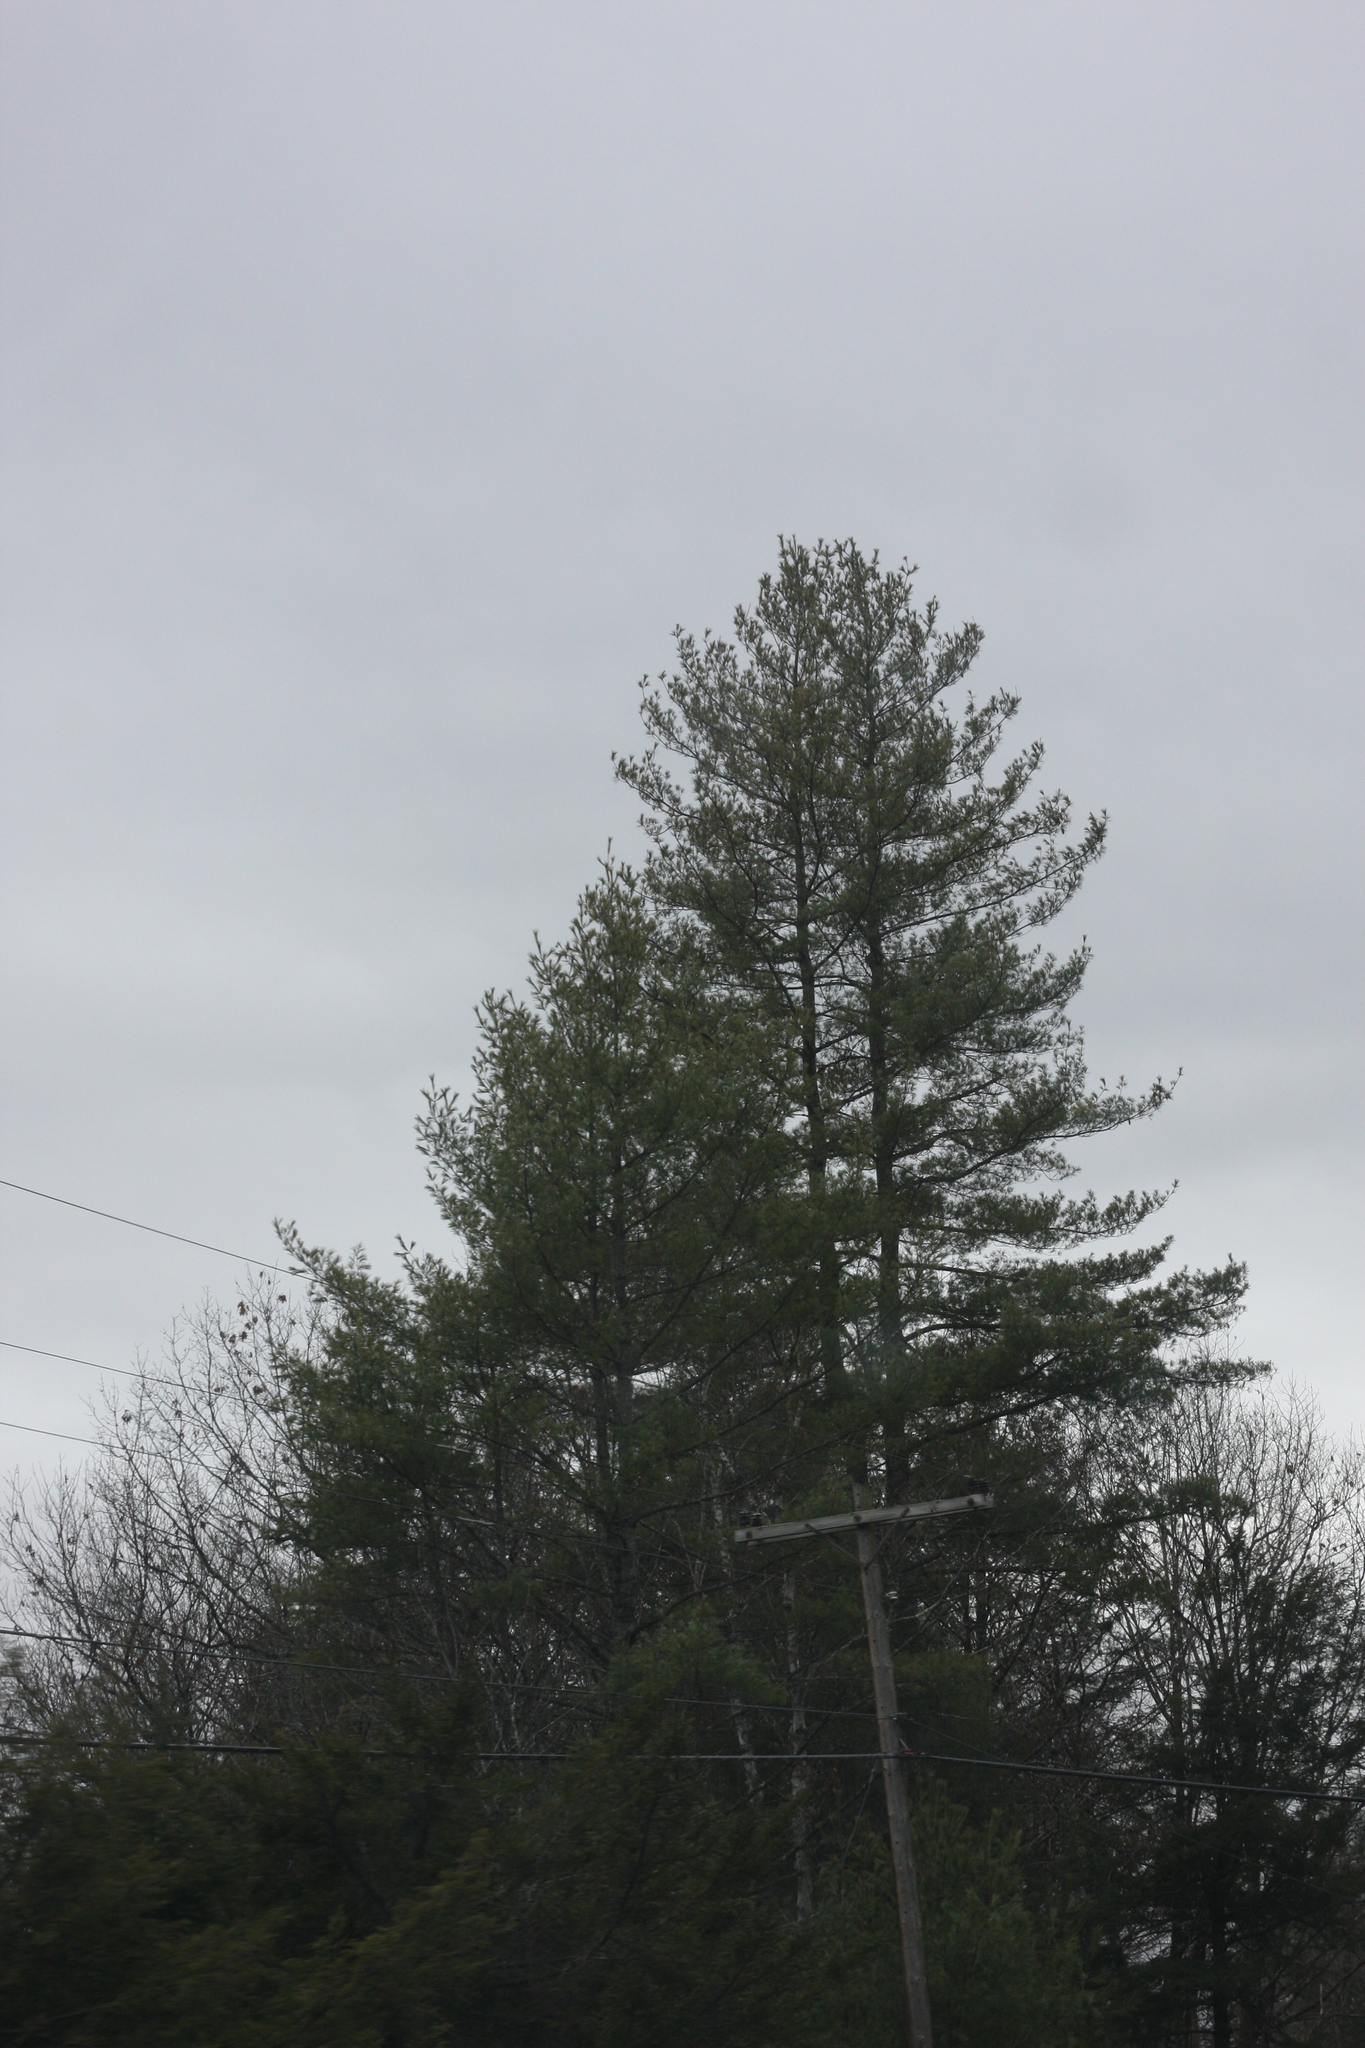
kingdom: Plantae
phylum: Tracheophyta
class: Pinopsida
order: Pinales
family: Pinaceae
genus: Pinus
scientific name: Pinus strobus
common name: Weymouth pine
